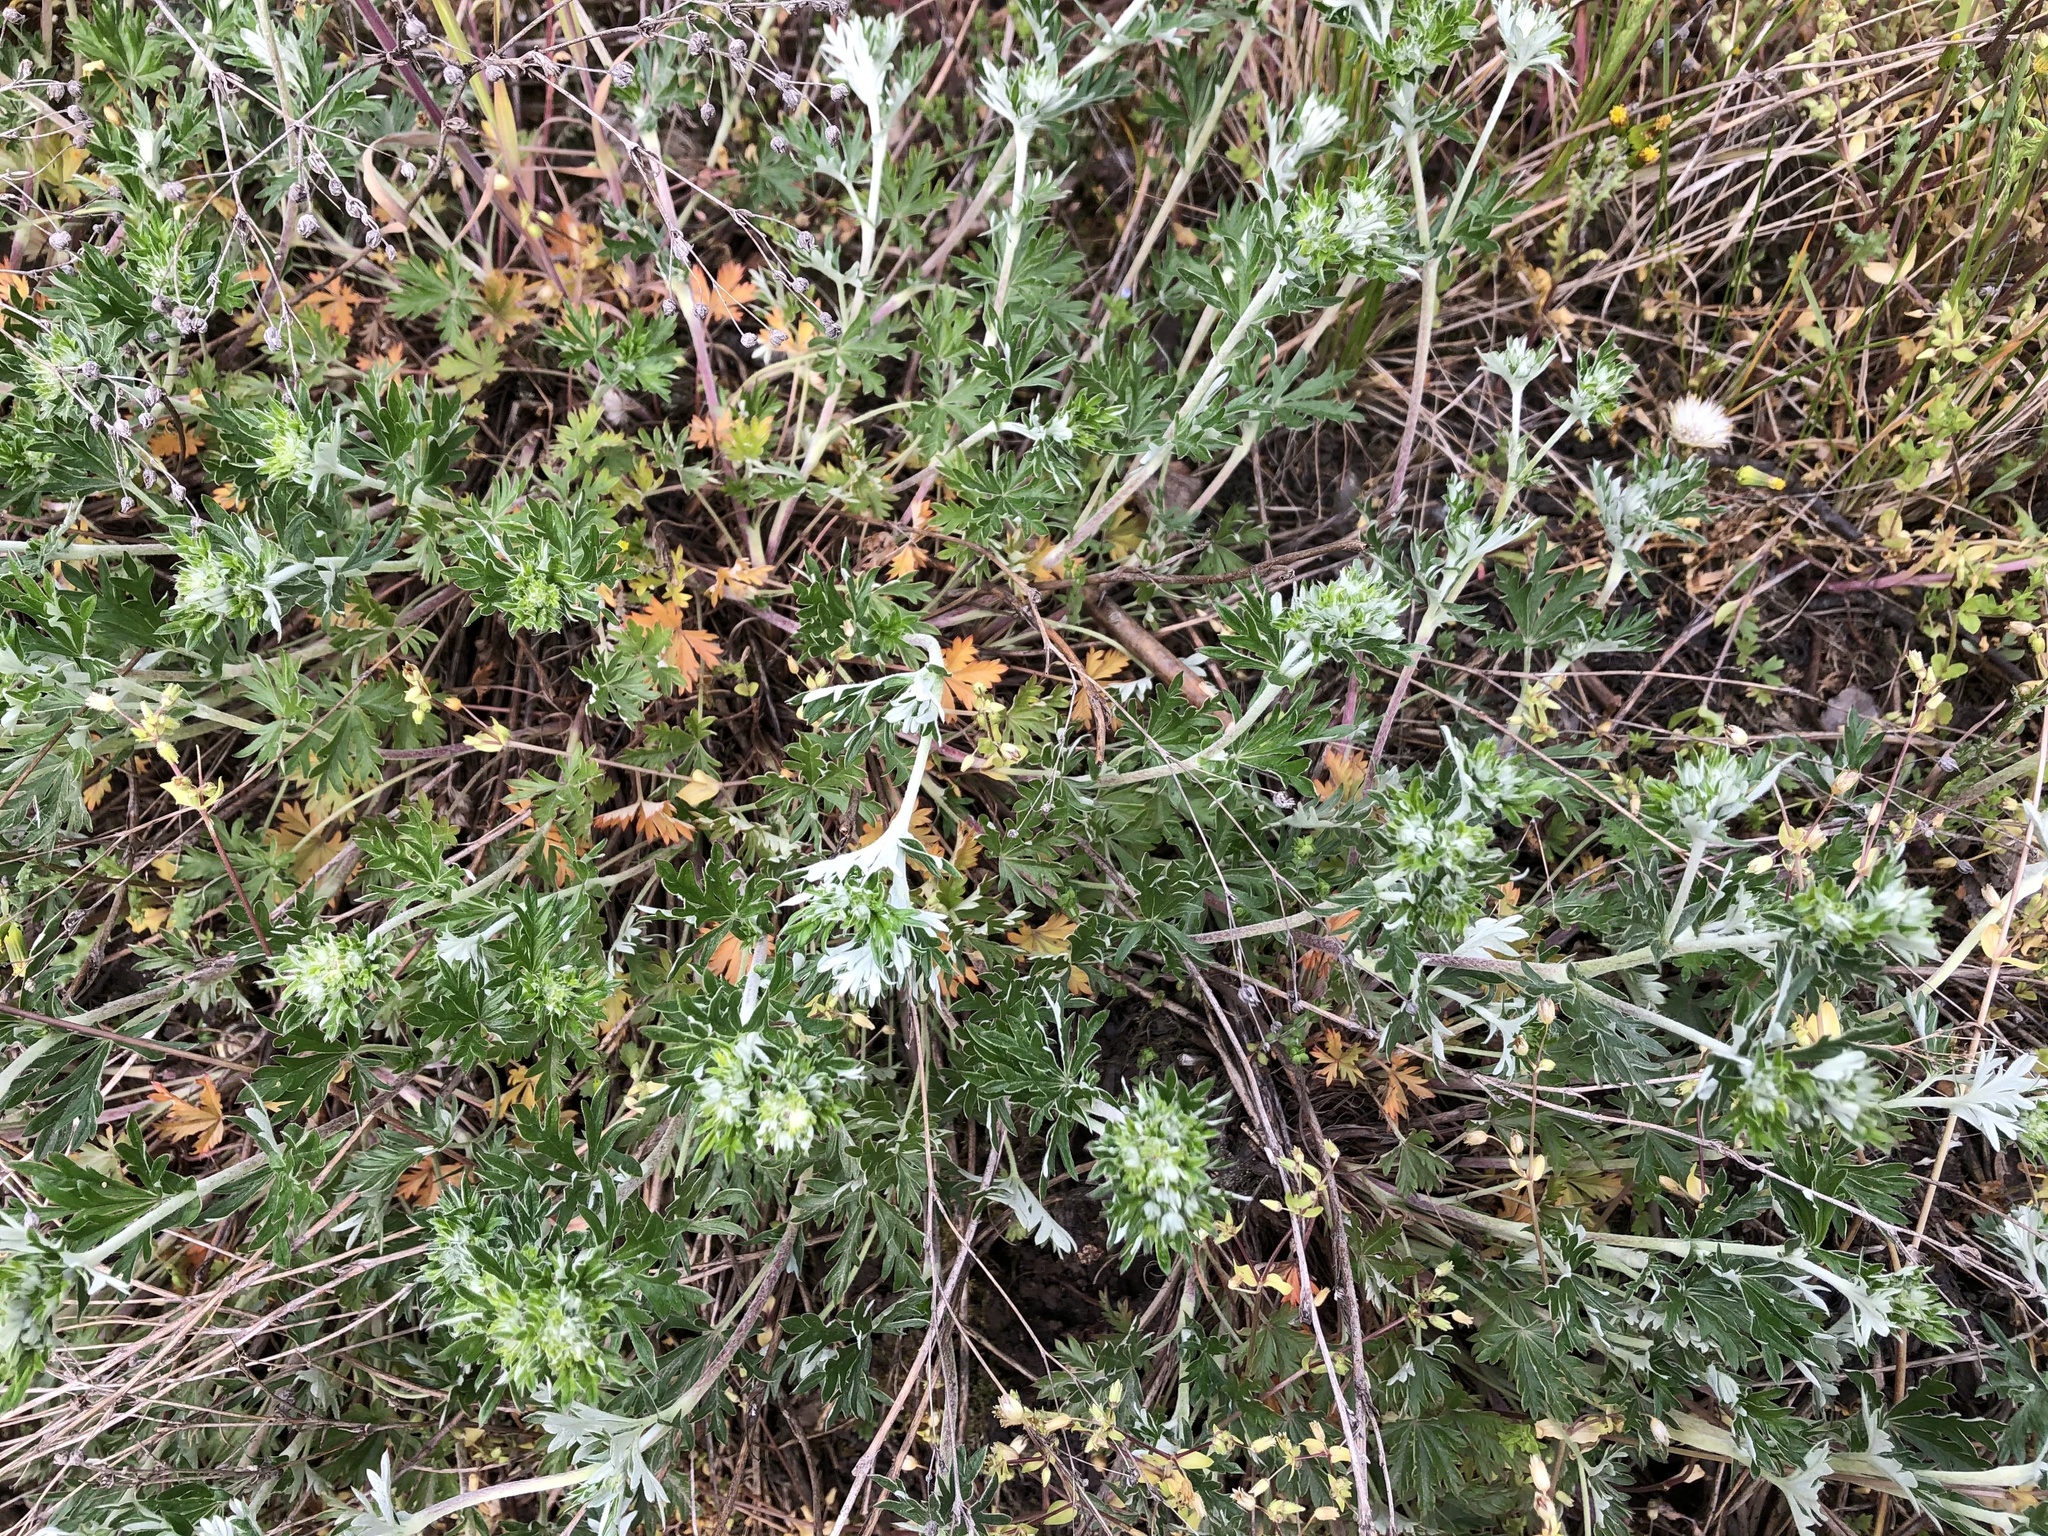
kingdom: Plantae
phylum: Tracheophyta
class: Magnoliopsida
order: Rosales
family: Rosaceae
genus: Potentilla
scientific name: Potentilla argentea
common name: Hoary cinquefoil
